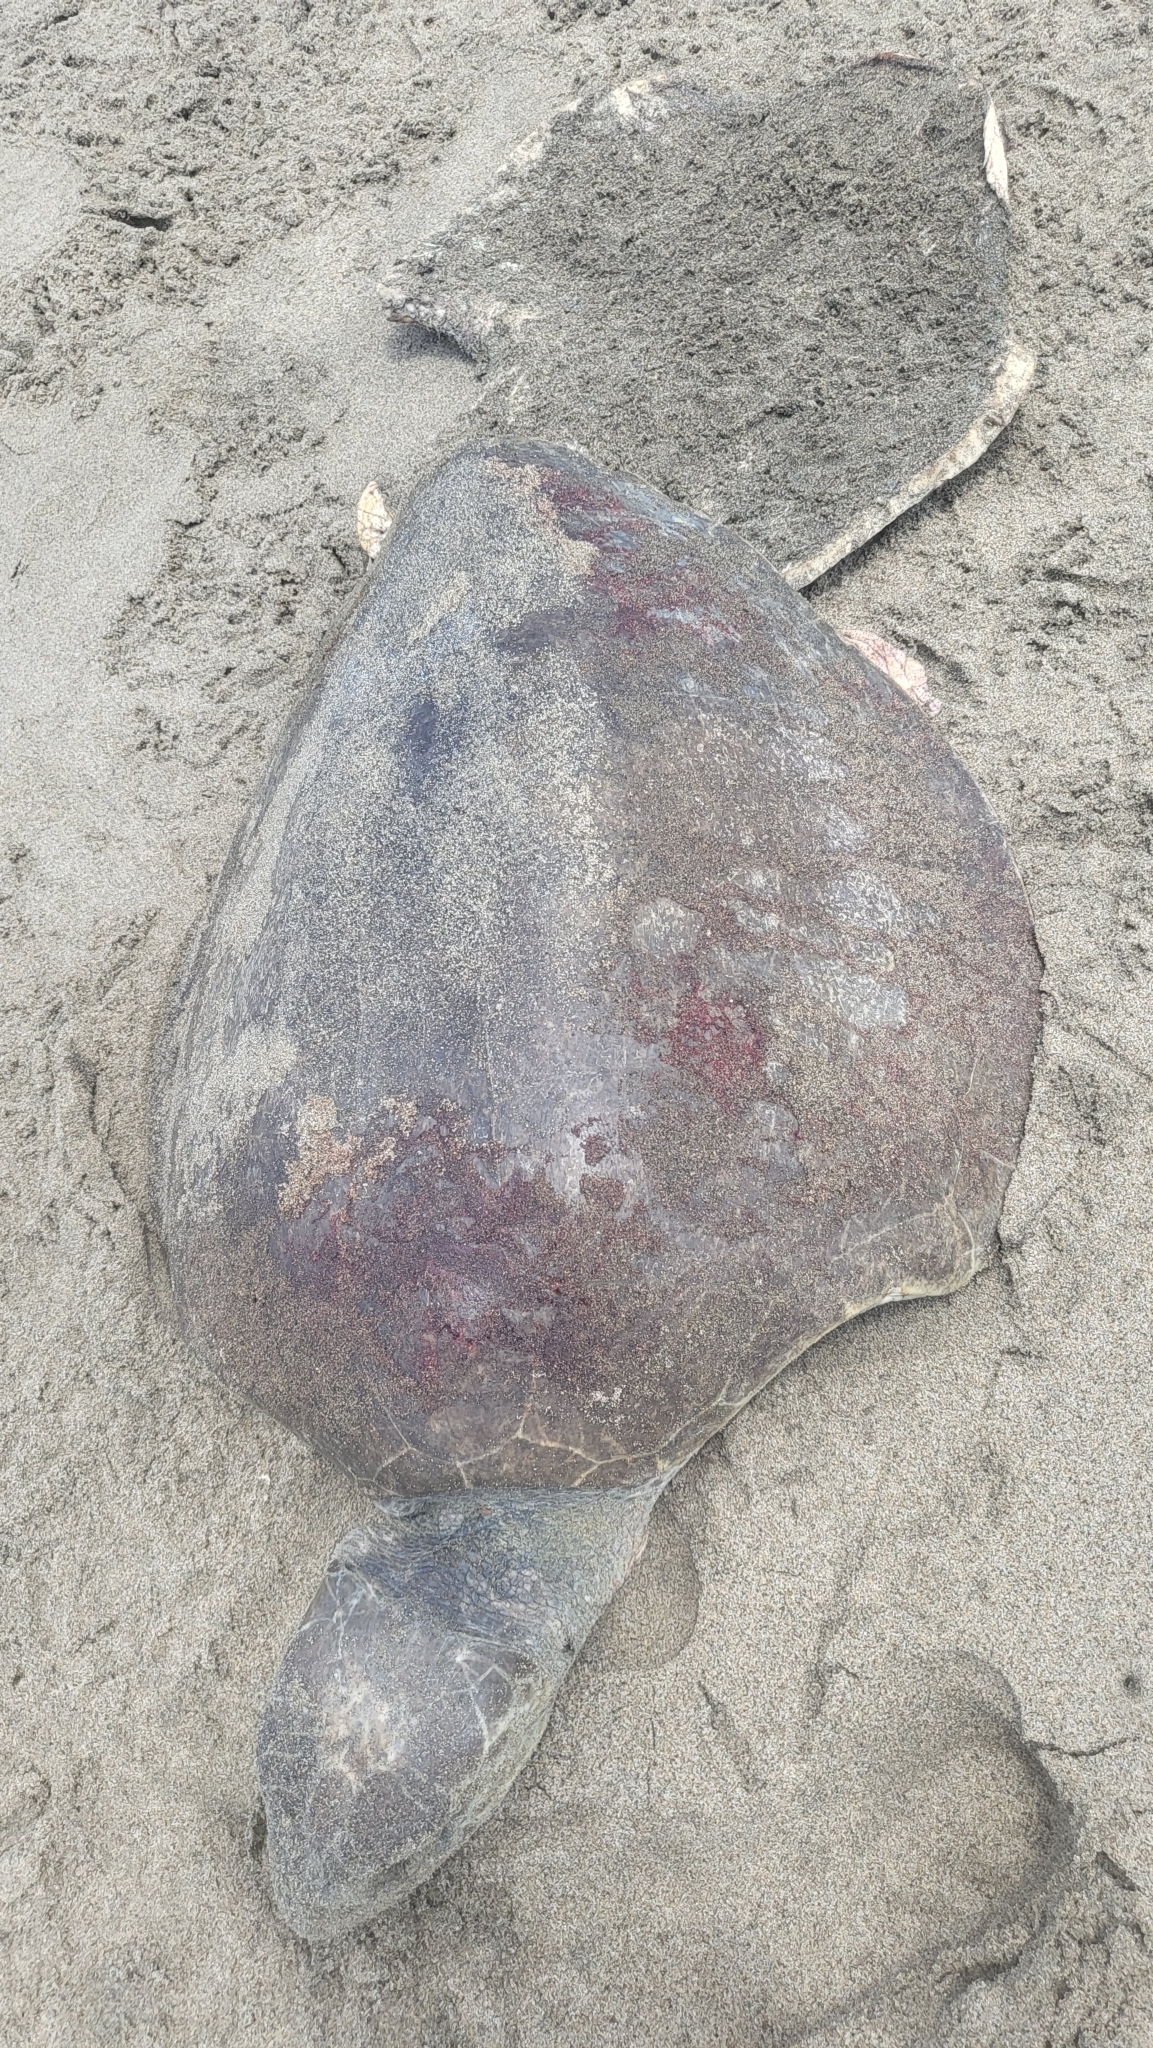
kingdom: Animalia
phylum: Chordata
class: Testudines
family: Cheloniidae
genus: Lepidochelys
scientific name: Lepidochelys olivacea
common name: Olive ridley
